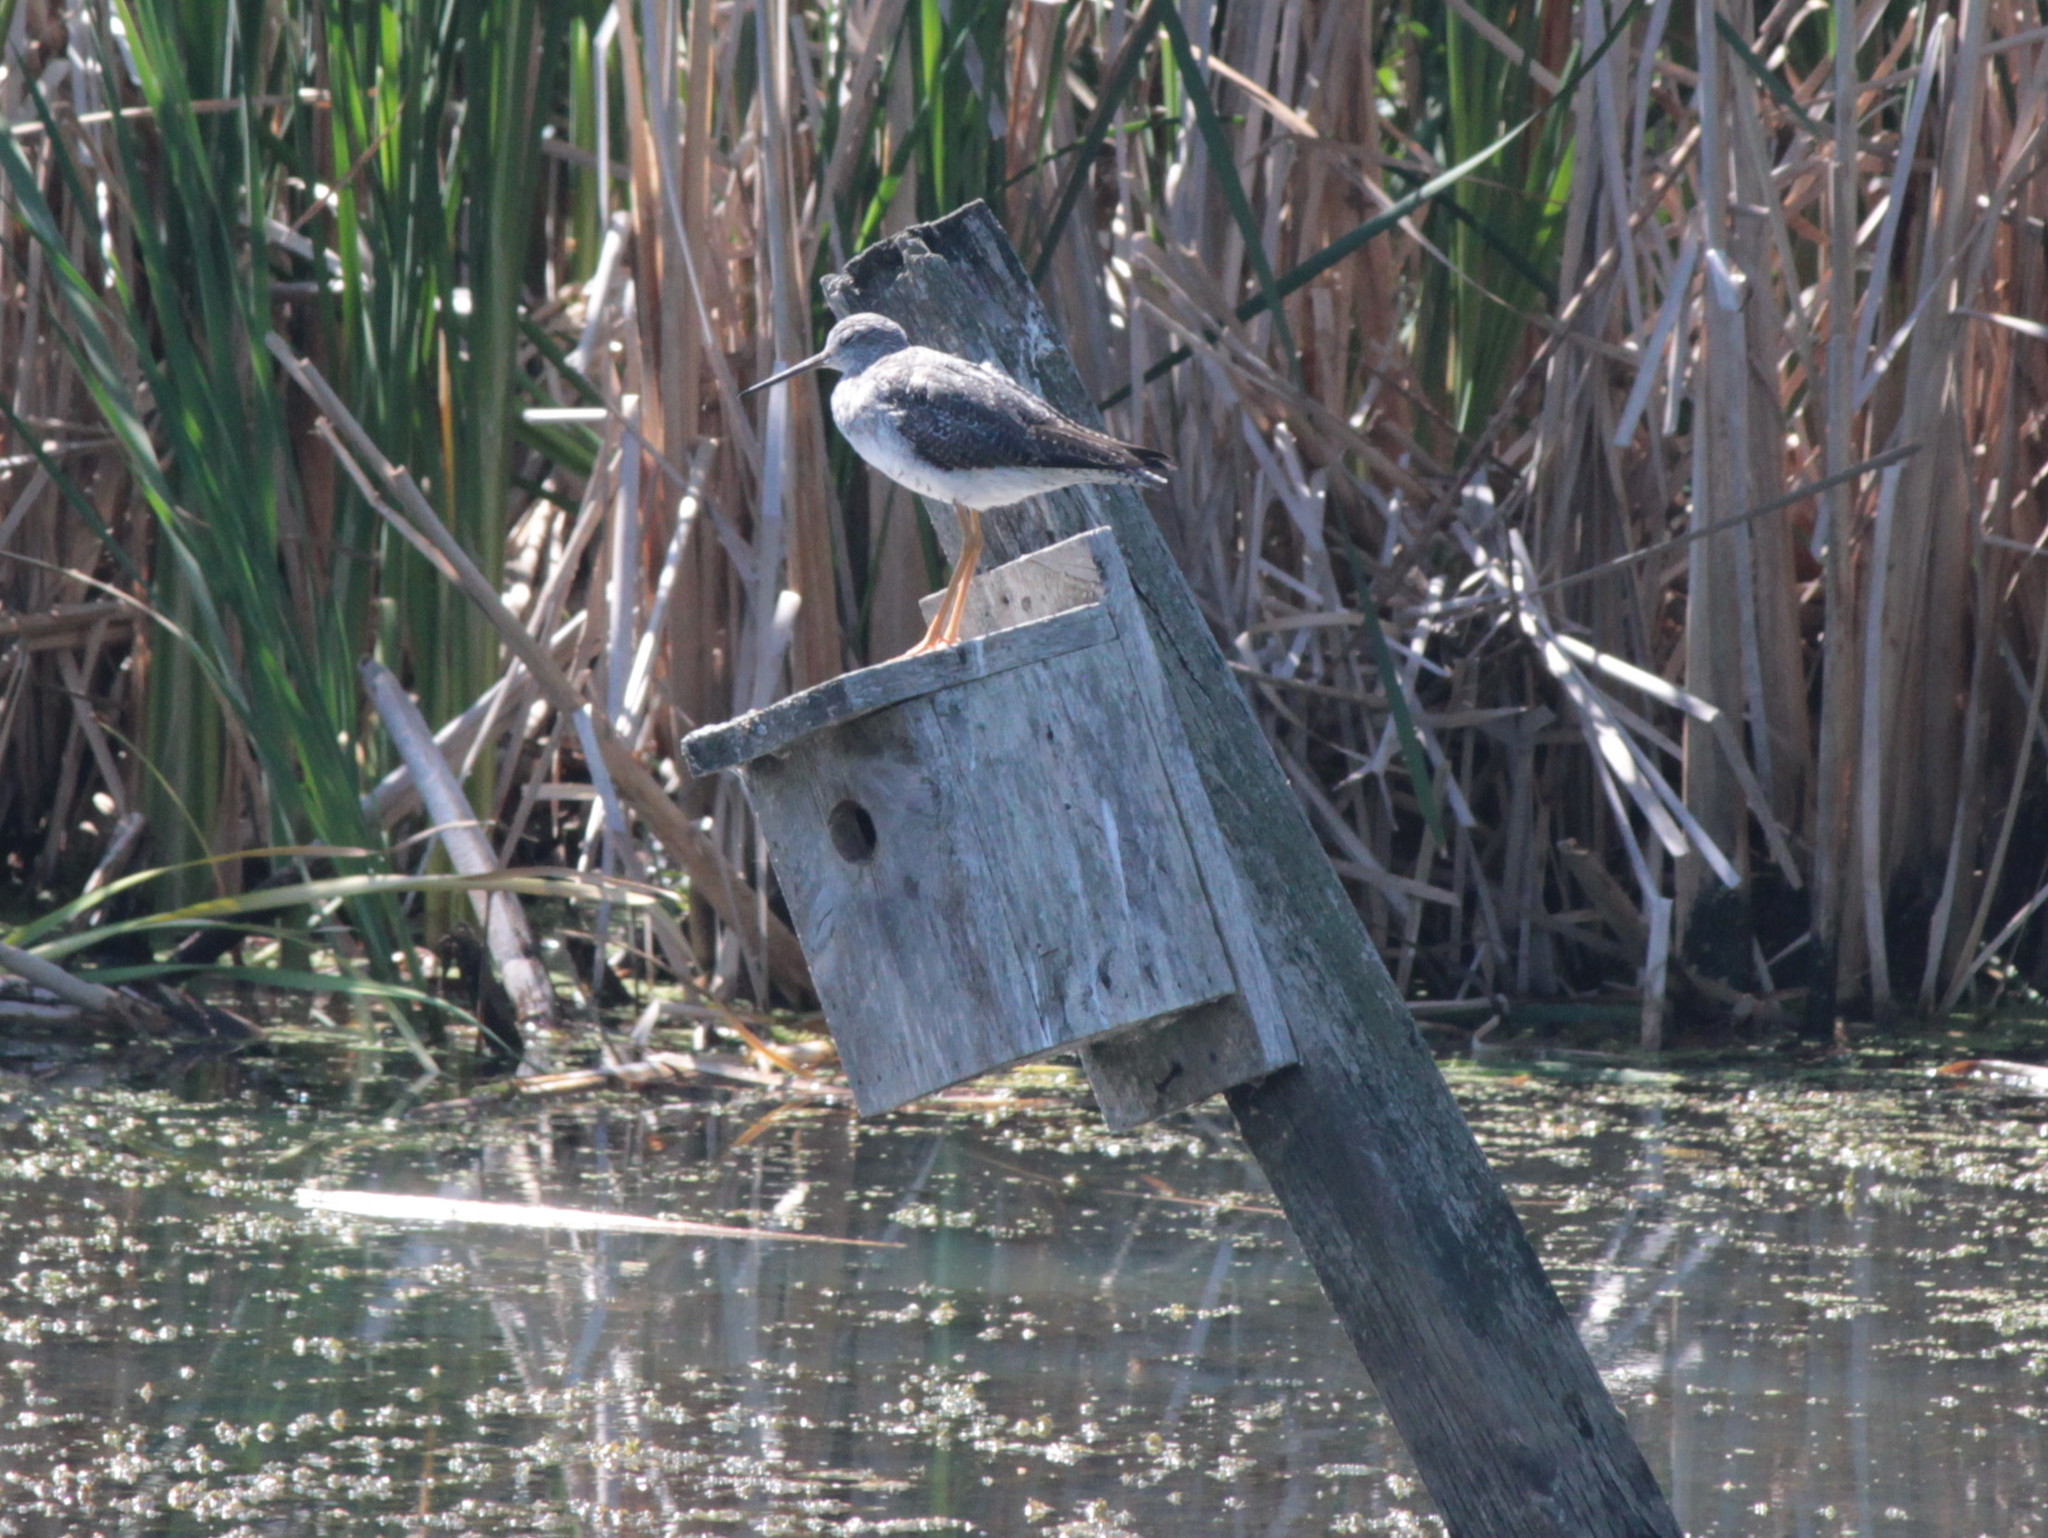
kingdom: Animalia
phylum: Chordata
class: Aves
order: Charadriiformes
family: Scolopacidae
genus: Tringa
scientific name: Tringa melanoleuca
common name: Greater yellowlegs
